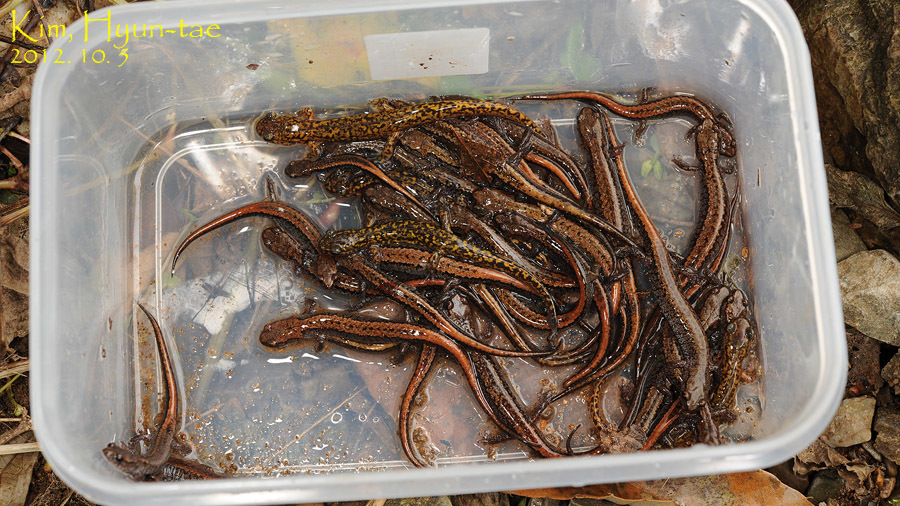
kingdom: Animalia
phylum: Chordata
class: Amphibia
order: Caudata
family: Plethodontidae
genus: Karsenia
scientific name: Karsenia koreana
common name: Korean crevice salamander
